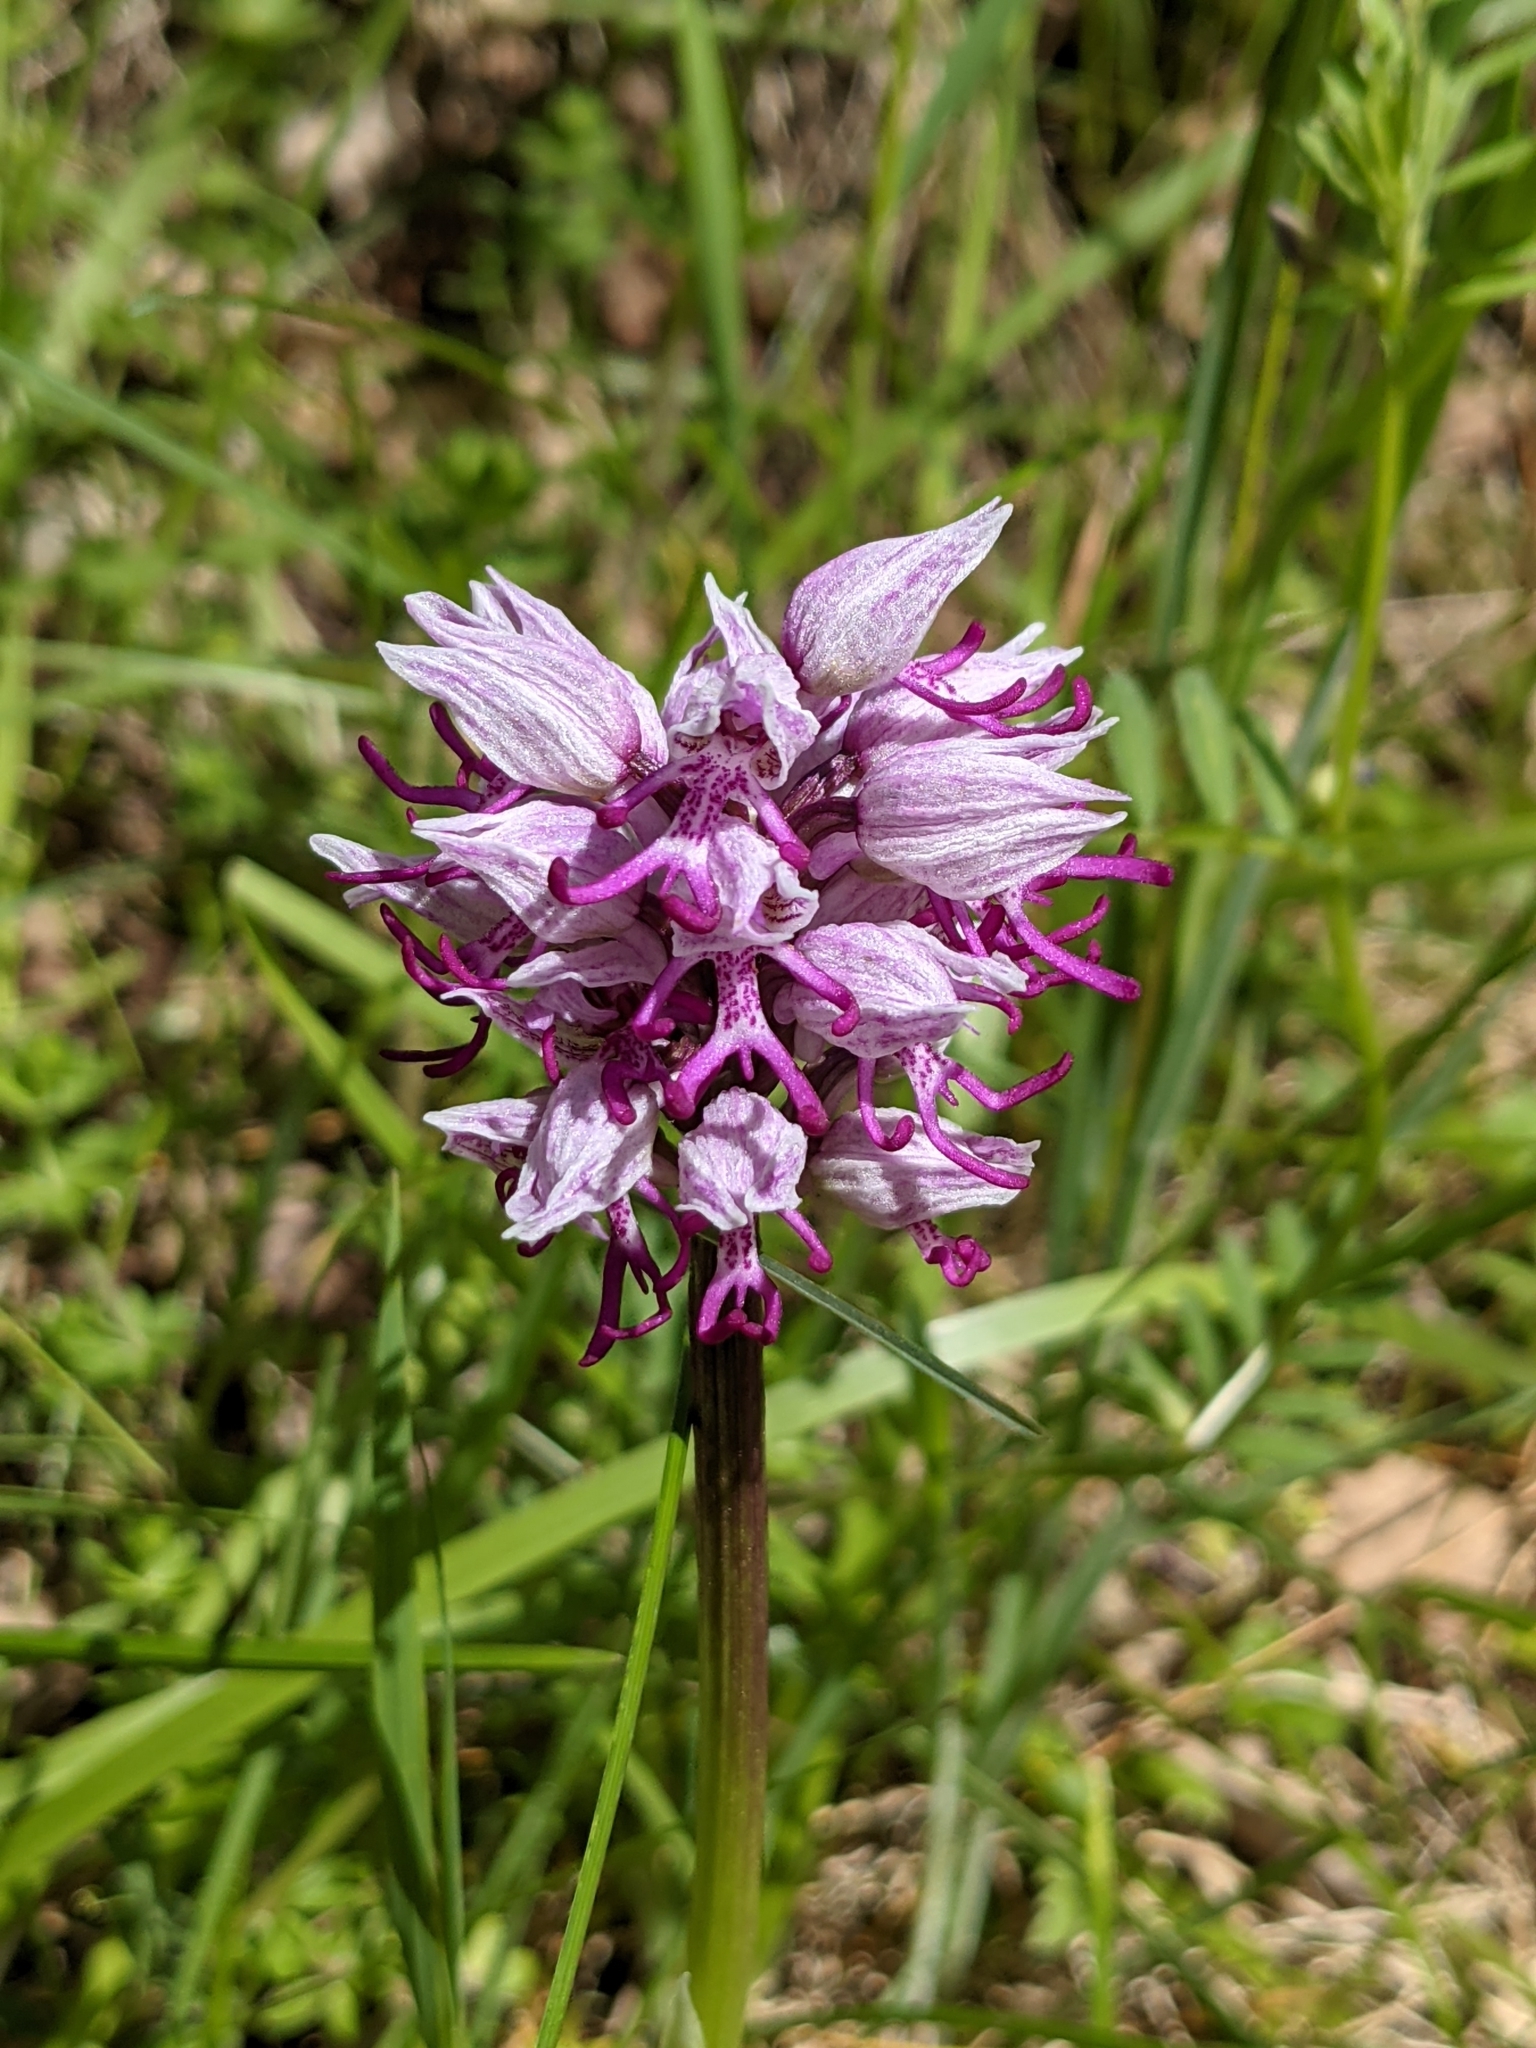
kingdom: Plantae
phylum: Tracheophyta
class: Liliopsida
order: Asparagales
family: Orchidaceae
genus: Orchis
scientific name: Orchis simia
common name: Monkey orchid
